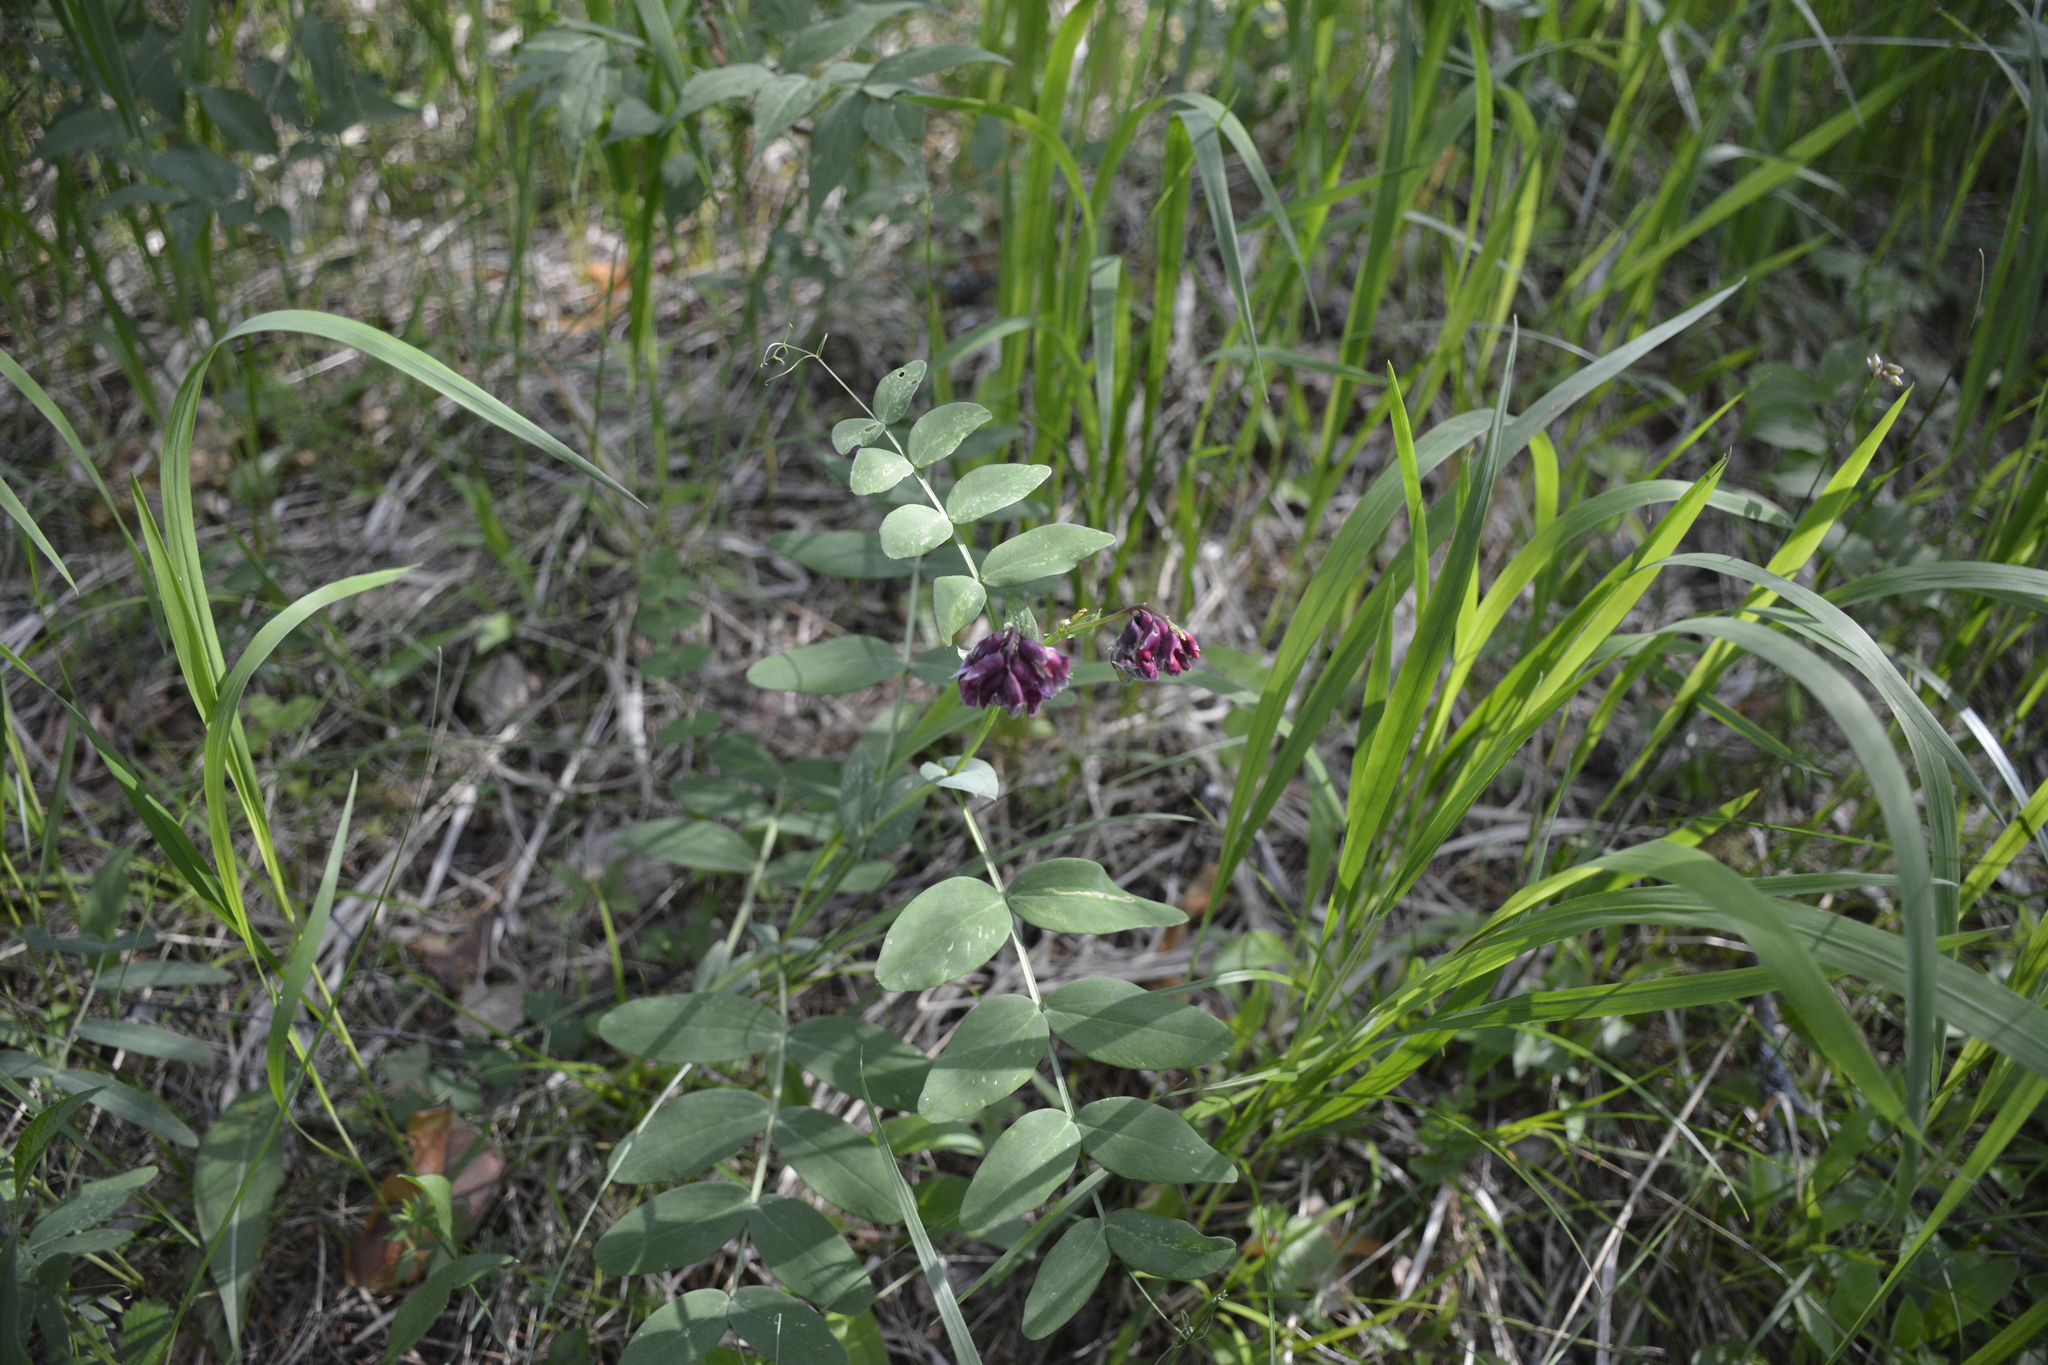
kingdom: Plantae
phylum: Tracheophyta
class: Magnoliopsida
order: Fabales
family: Fabaceae
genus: Lathyrus
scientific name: Lathyrus pisiformis
